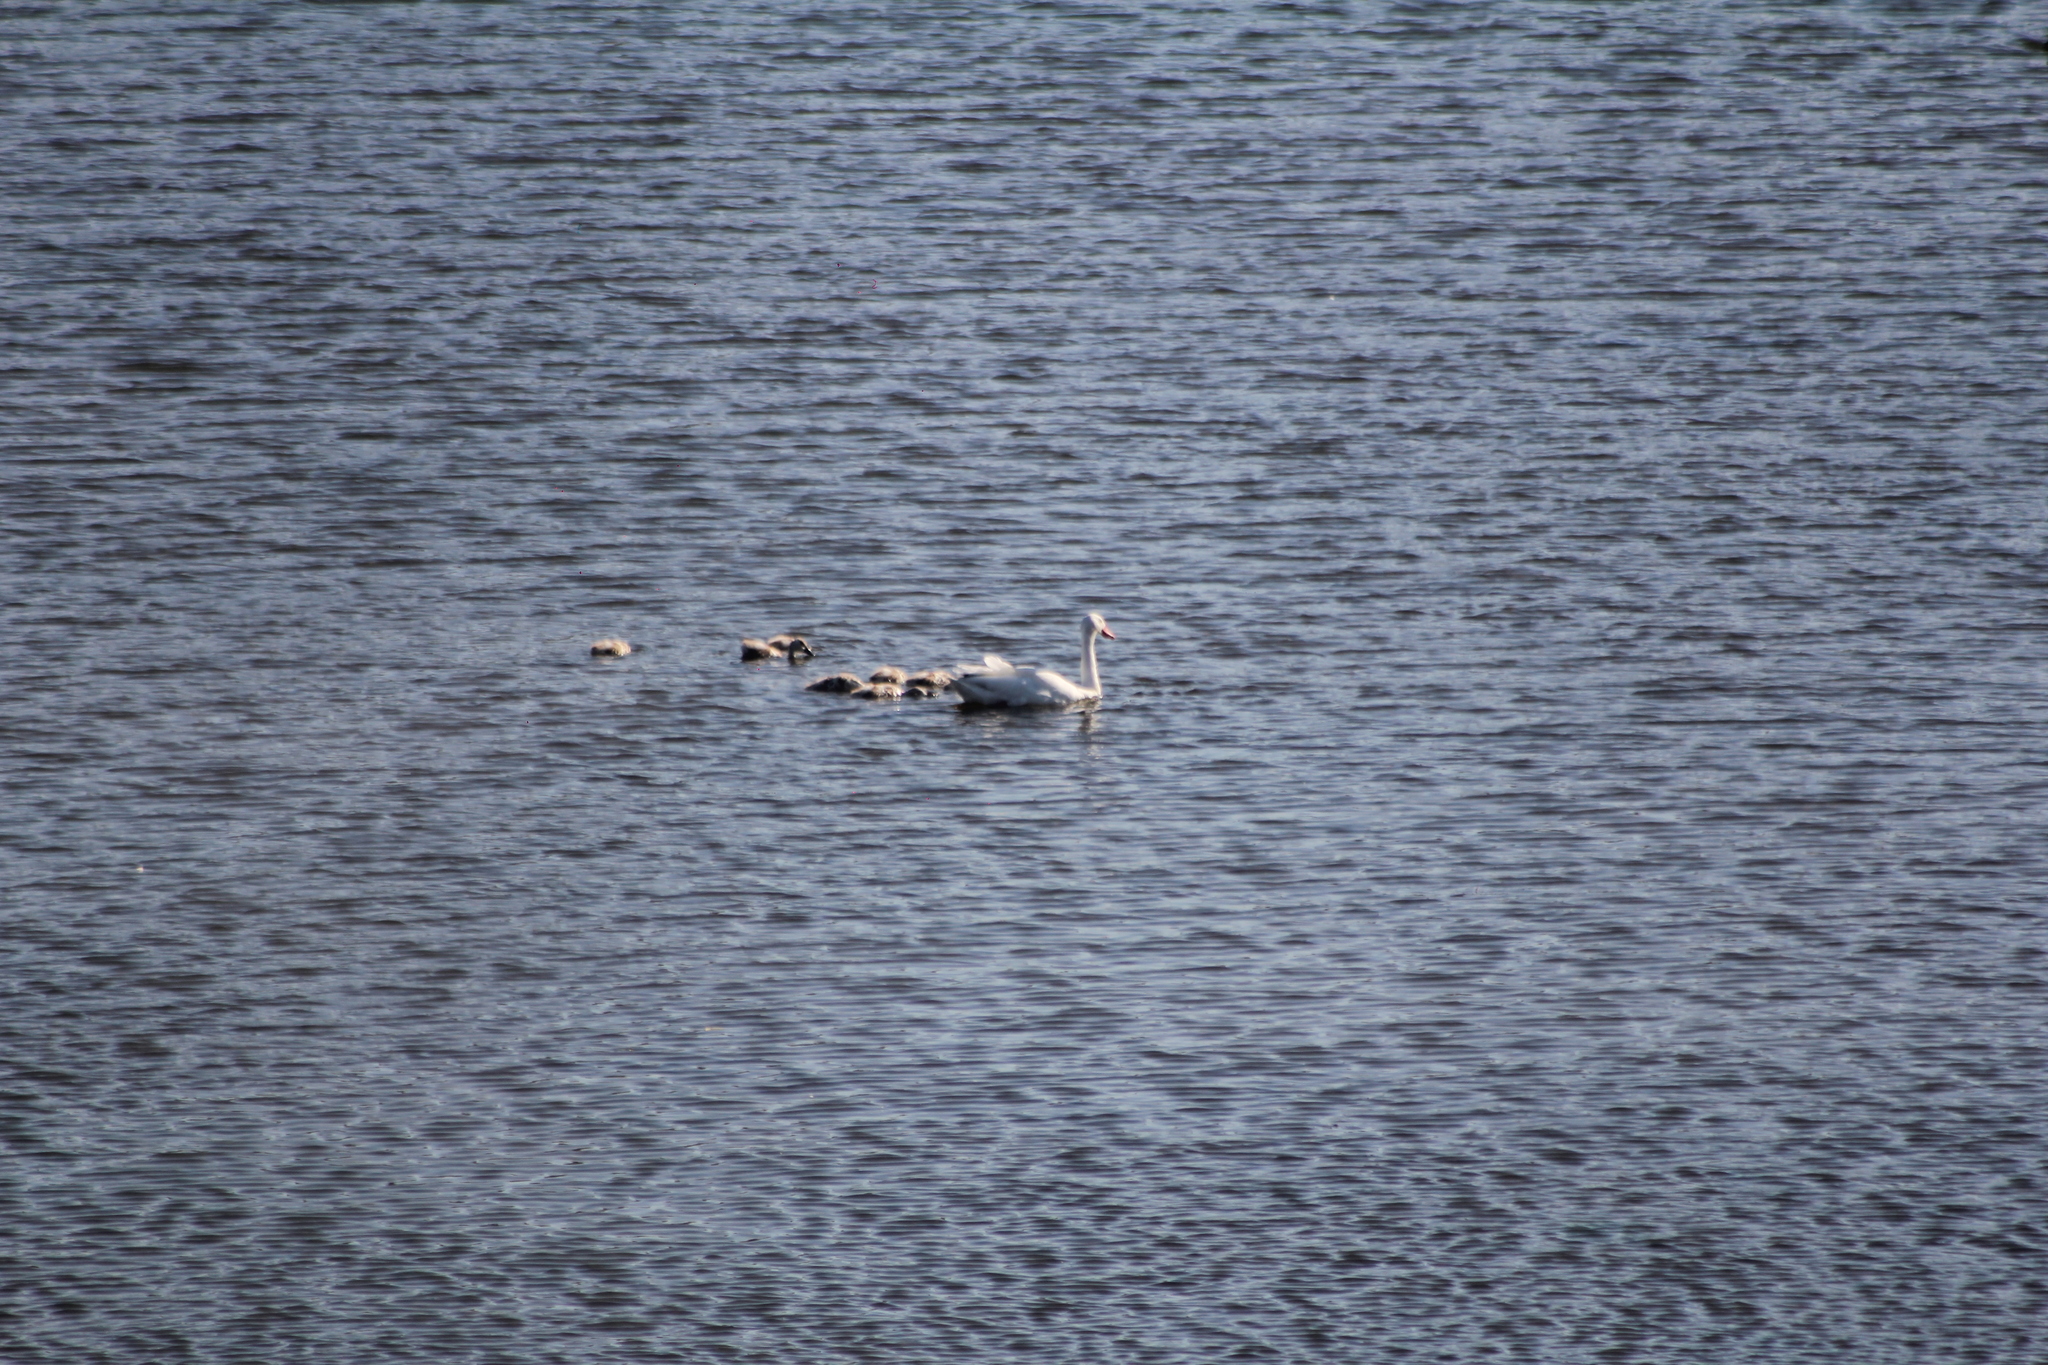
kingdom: Animalia
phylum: Chordata
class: Aves
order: Anseriformes
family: Anatidae
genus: Coscoroba
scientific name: Coscoroba coscoroba
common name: Coscoroba swan
